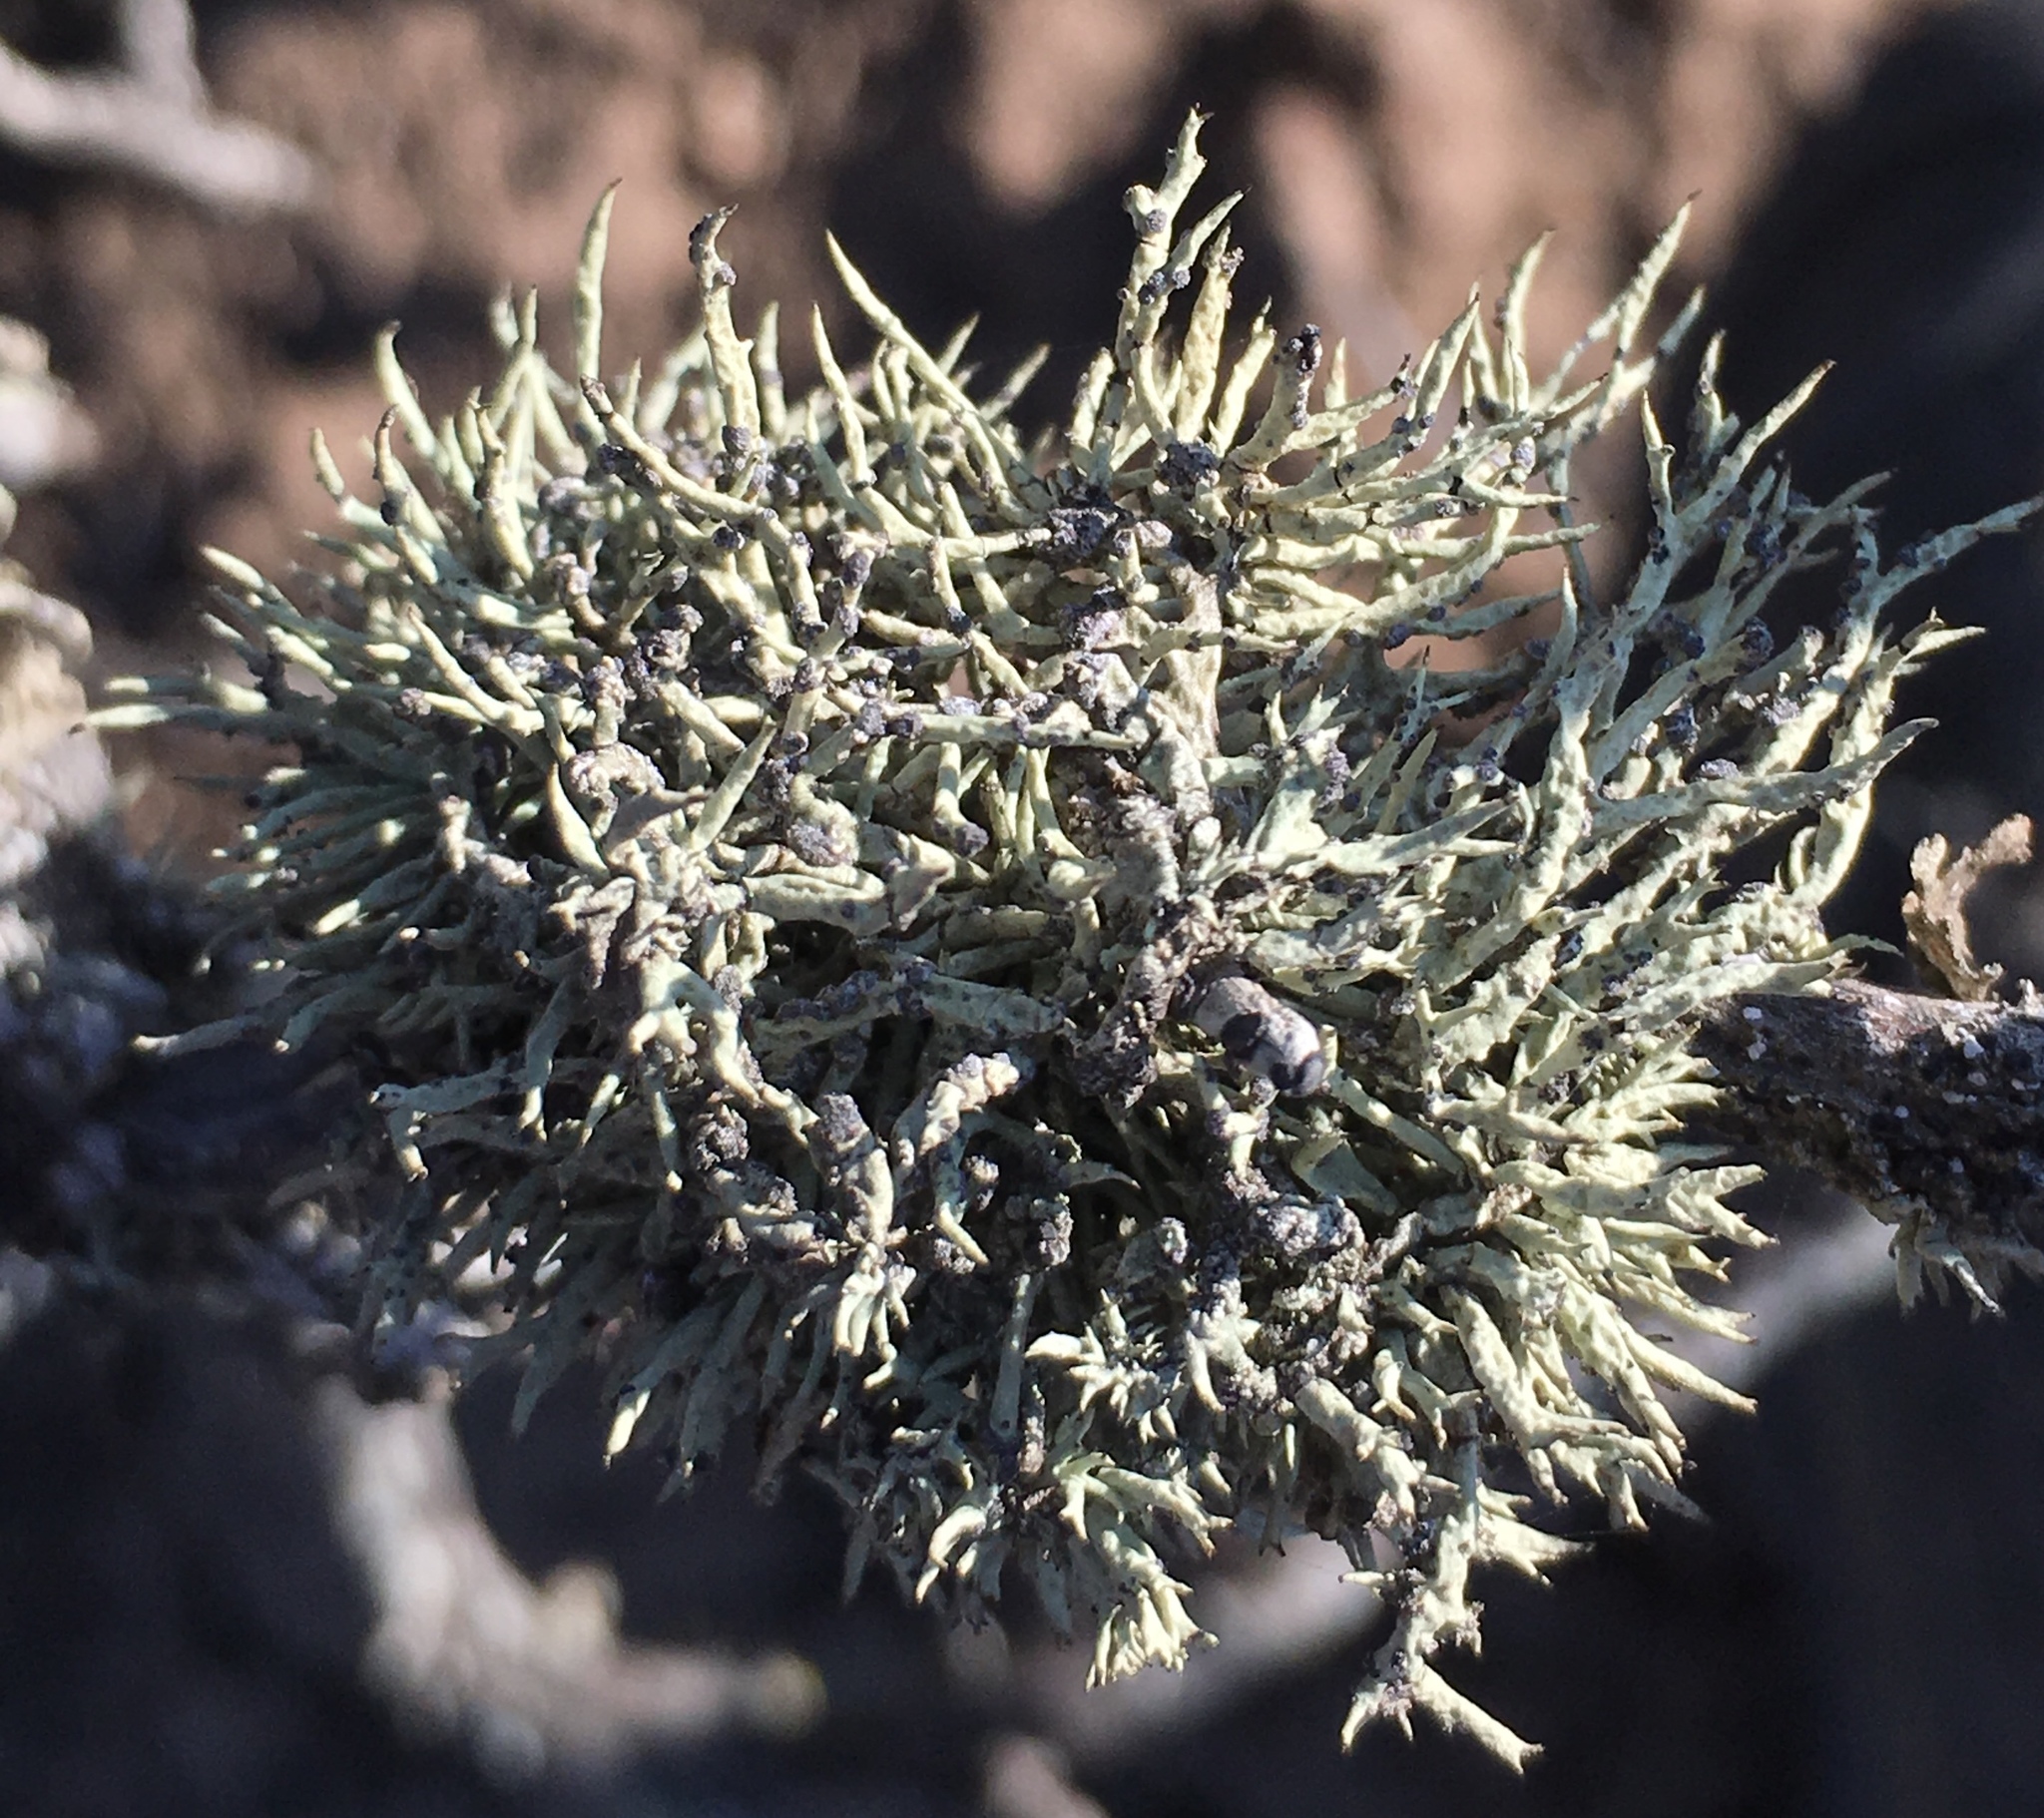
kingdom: Fungi
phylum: Ascomycota
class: Lecanoromycetes
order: Lecanorales
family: Ramalinaceae
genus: Niebla
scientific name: Niebla cephalota
